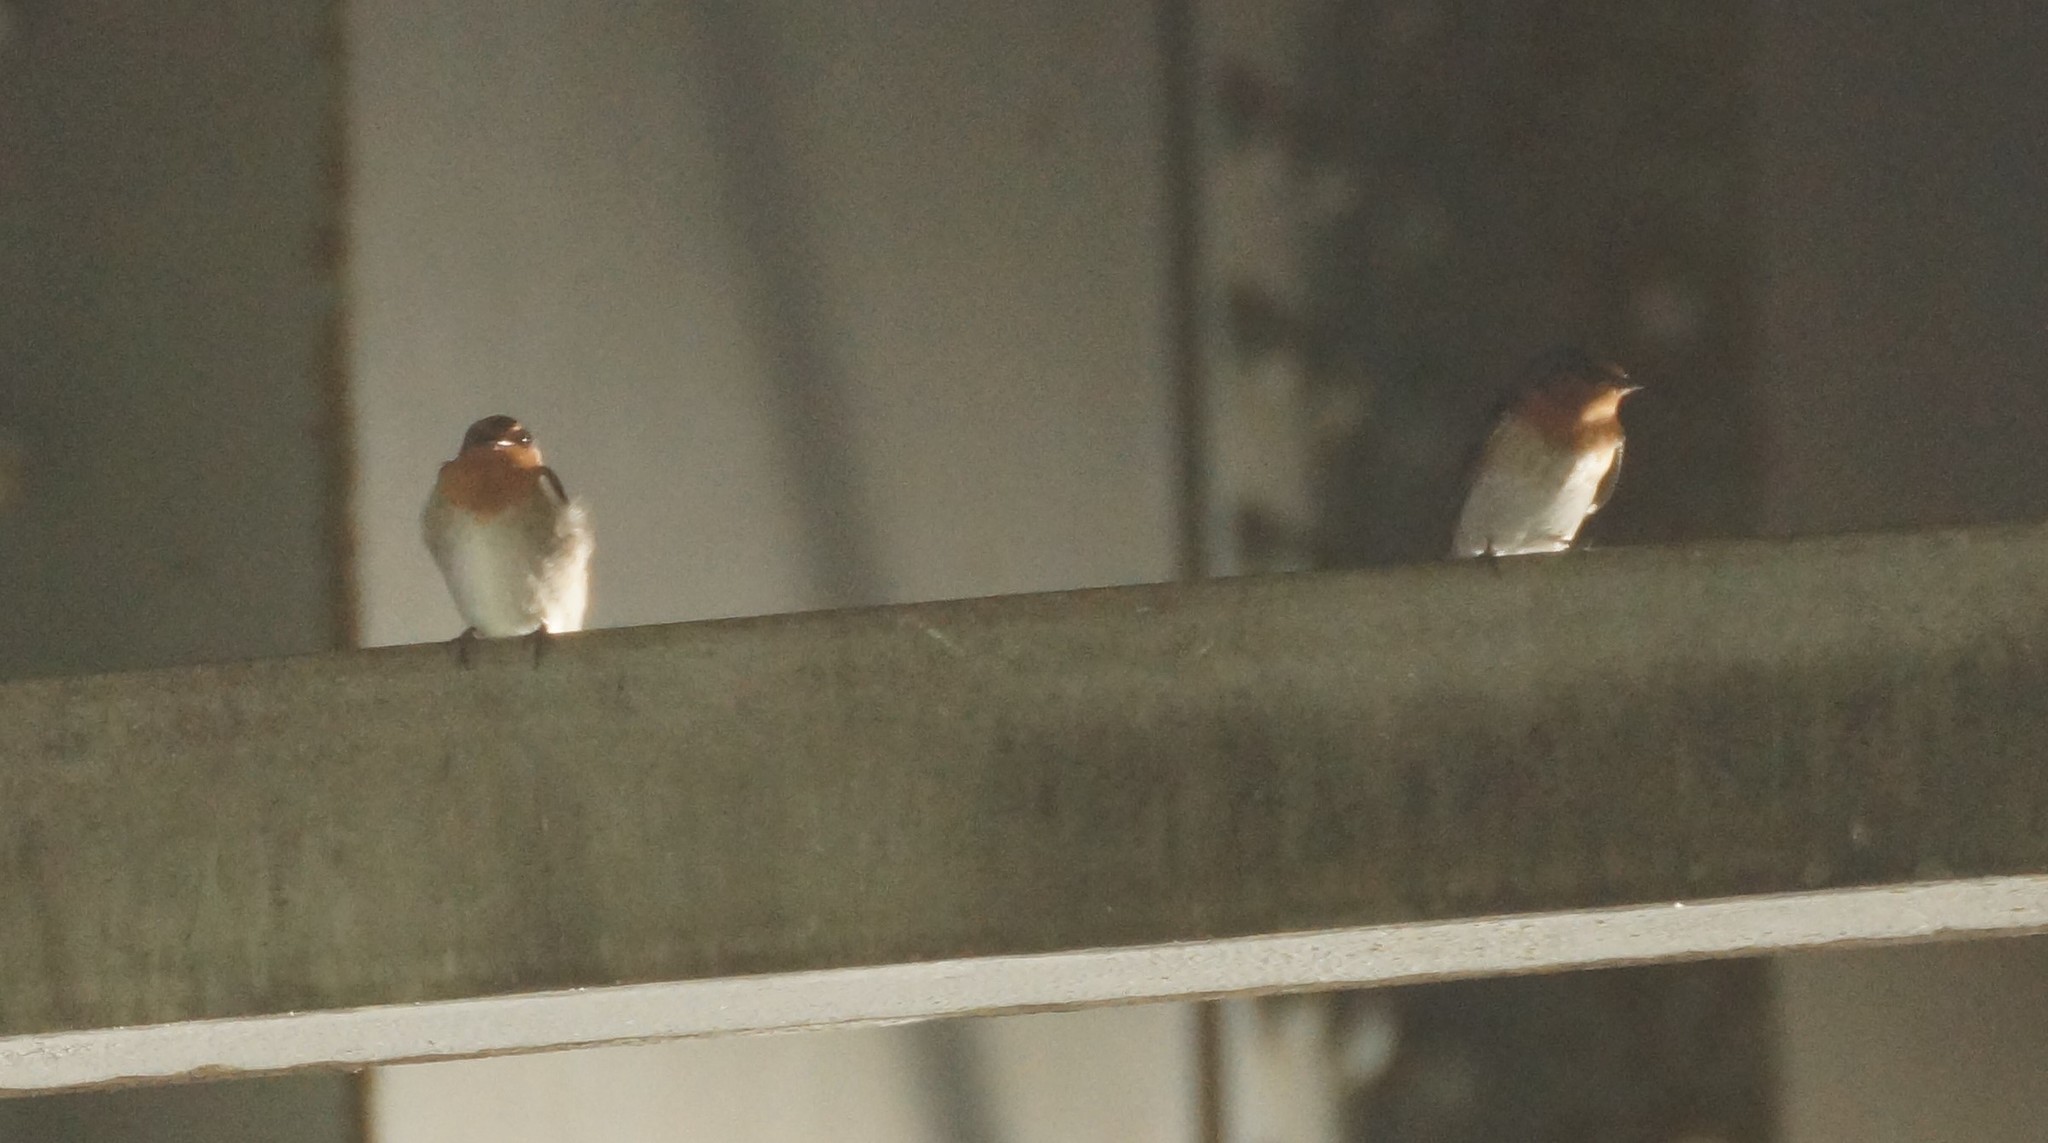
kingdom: Animalia
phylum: Chordata
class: Aves
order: Passeriformes
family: Hirundinidae
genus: Hirundo
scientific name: Hirundo neoxena
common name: Welcome swallow
